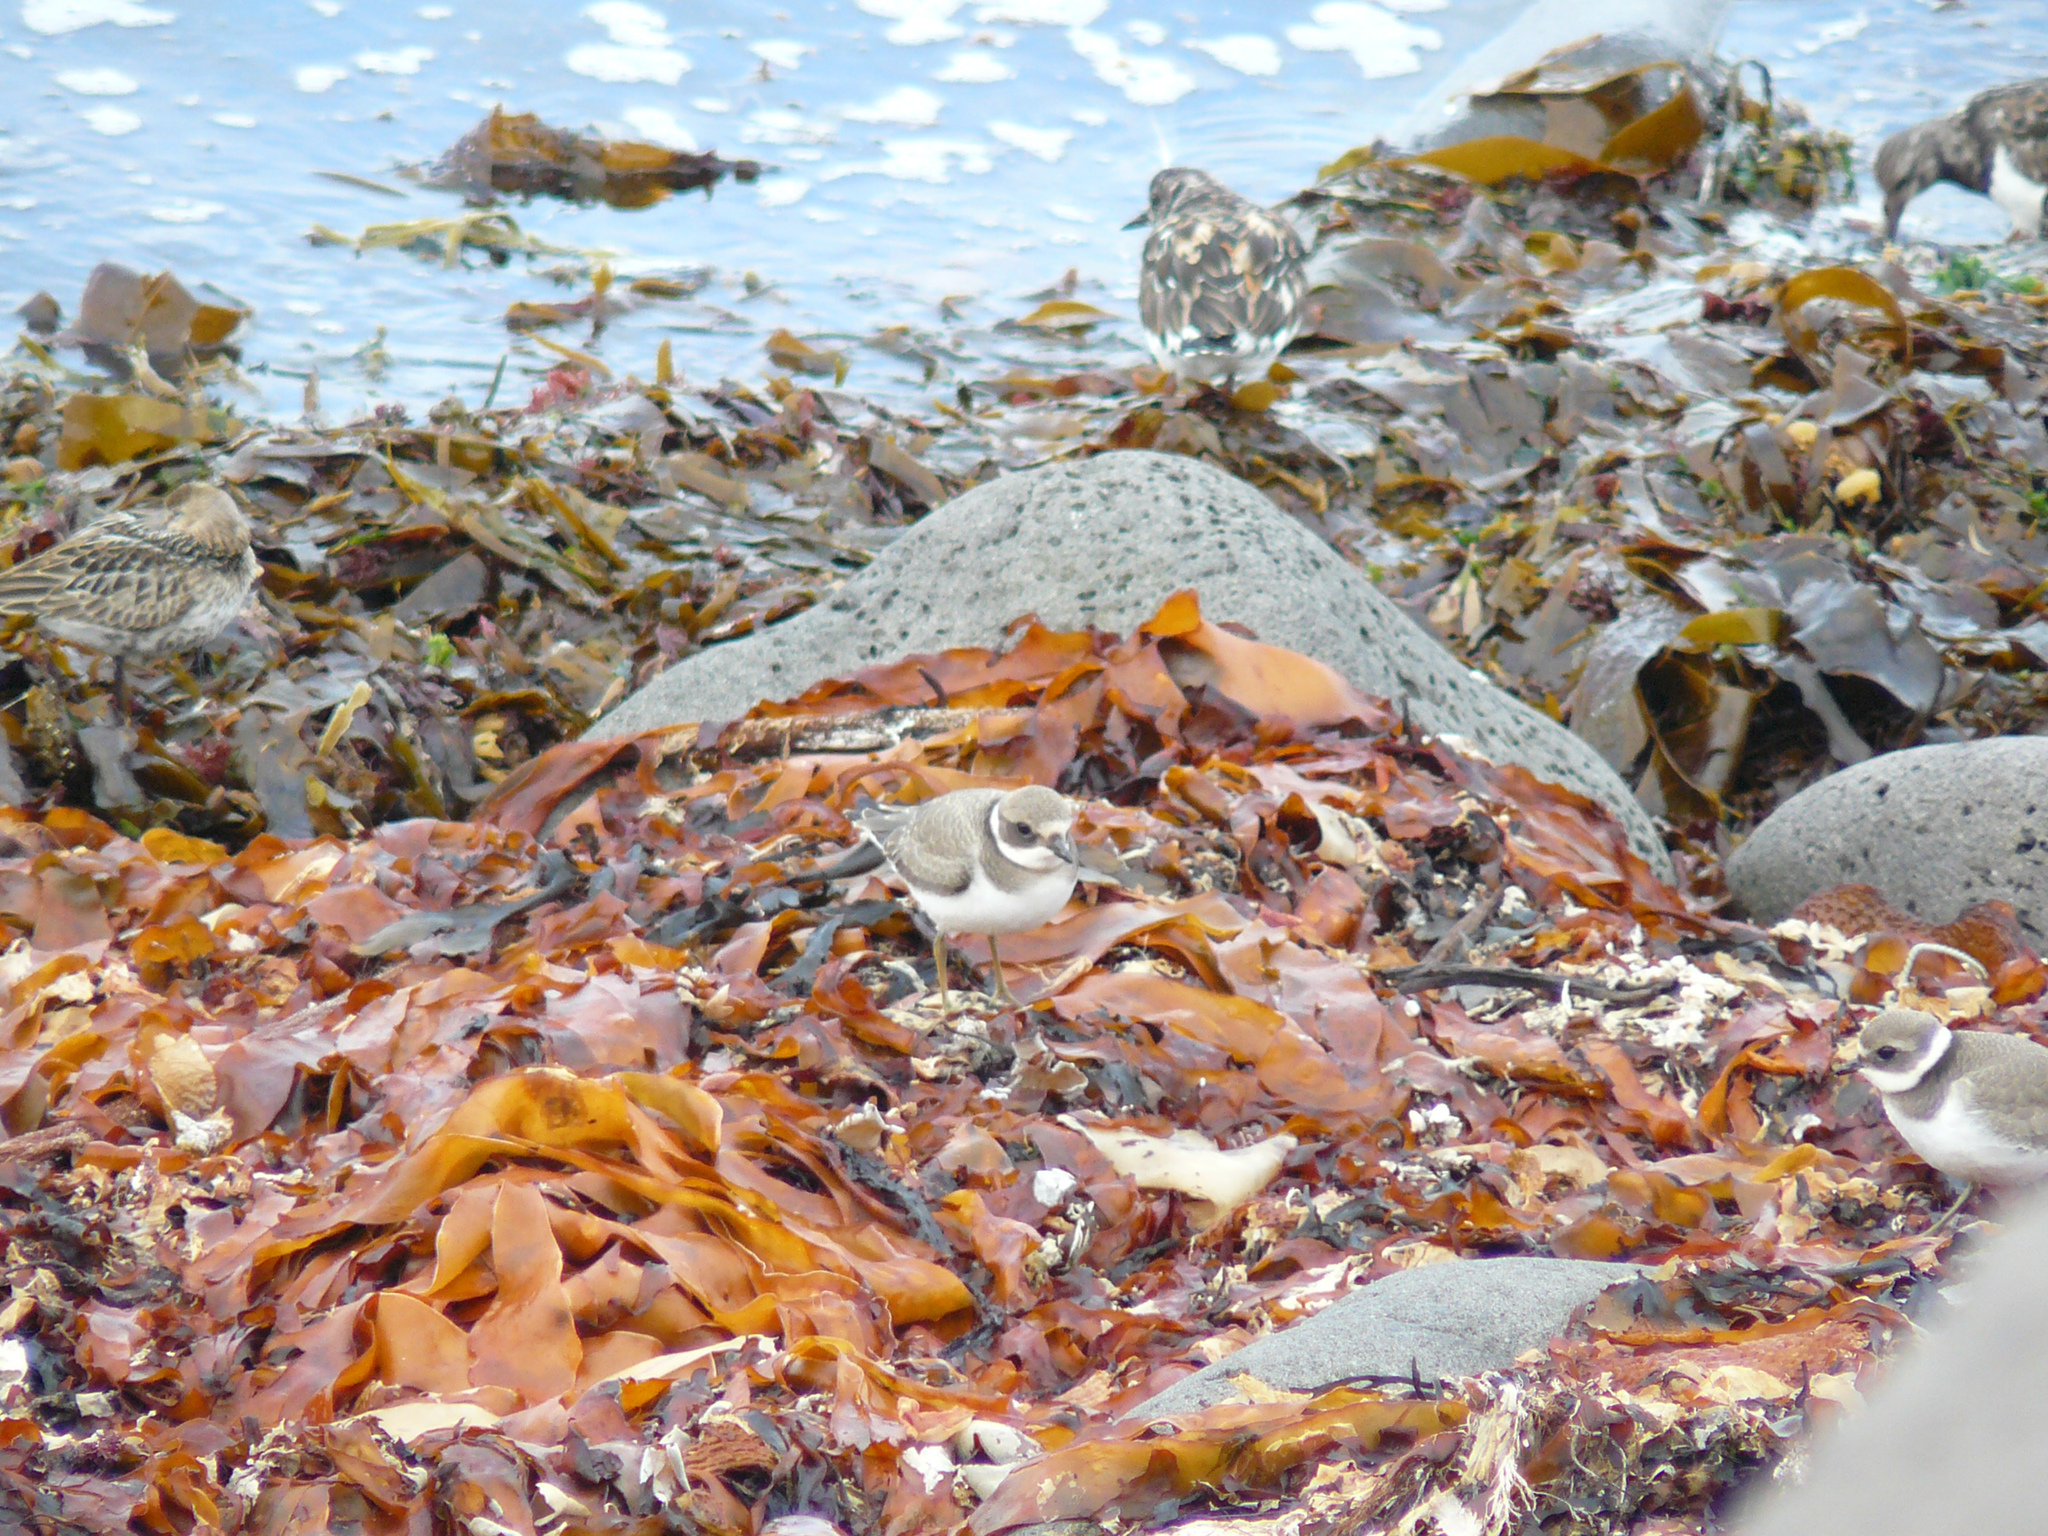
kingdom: Animalia
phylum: Chordata
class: Aves
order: Charadriiformes
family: Charadriidae
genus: Charadrius
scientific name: Charadrius hiaticula
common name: Common ringed plover
